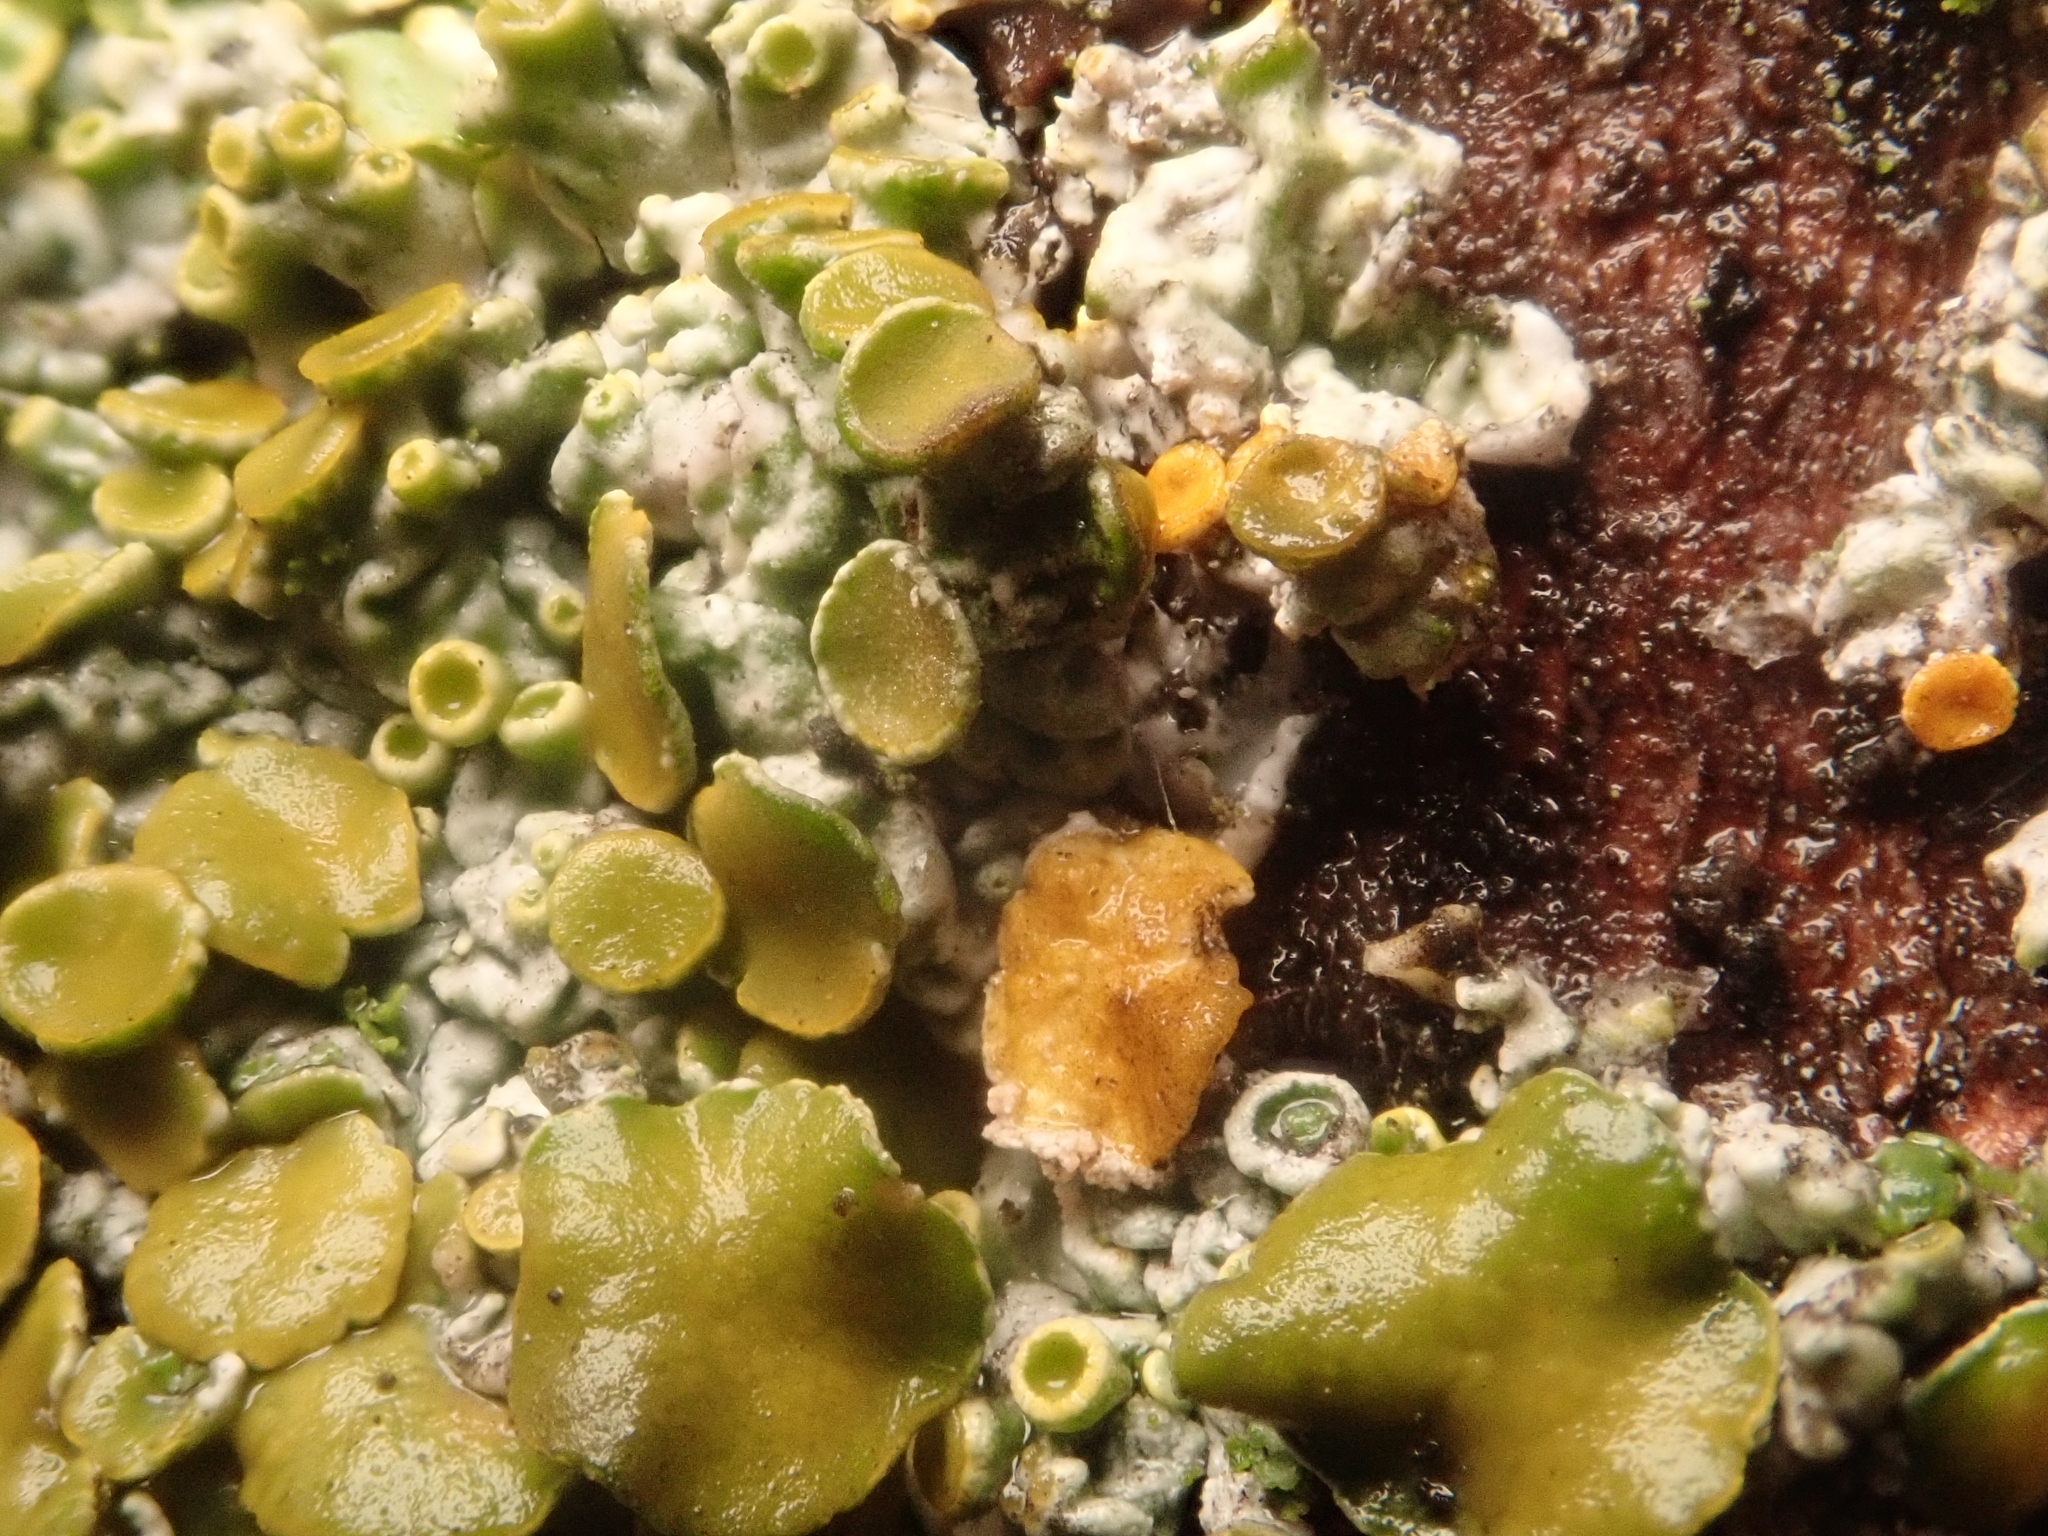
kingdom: Fungi
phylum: Ascomycota
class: Lecanoromycetes
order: Teloschistales
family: Teloschistaceae
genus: Xanthoria
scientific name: Xanthoria parietina
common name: Common orange lichen
